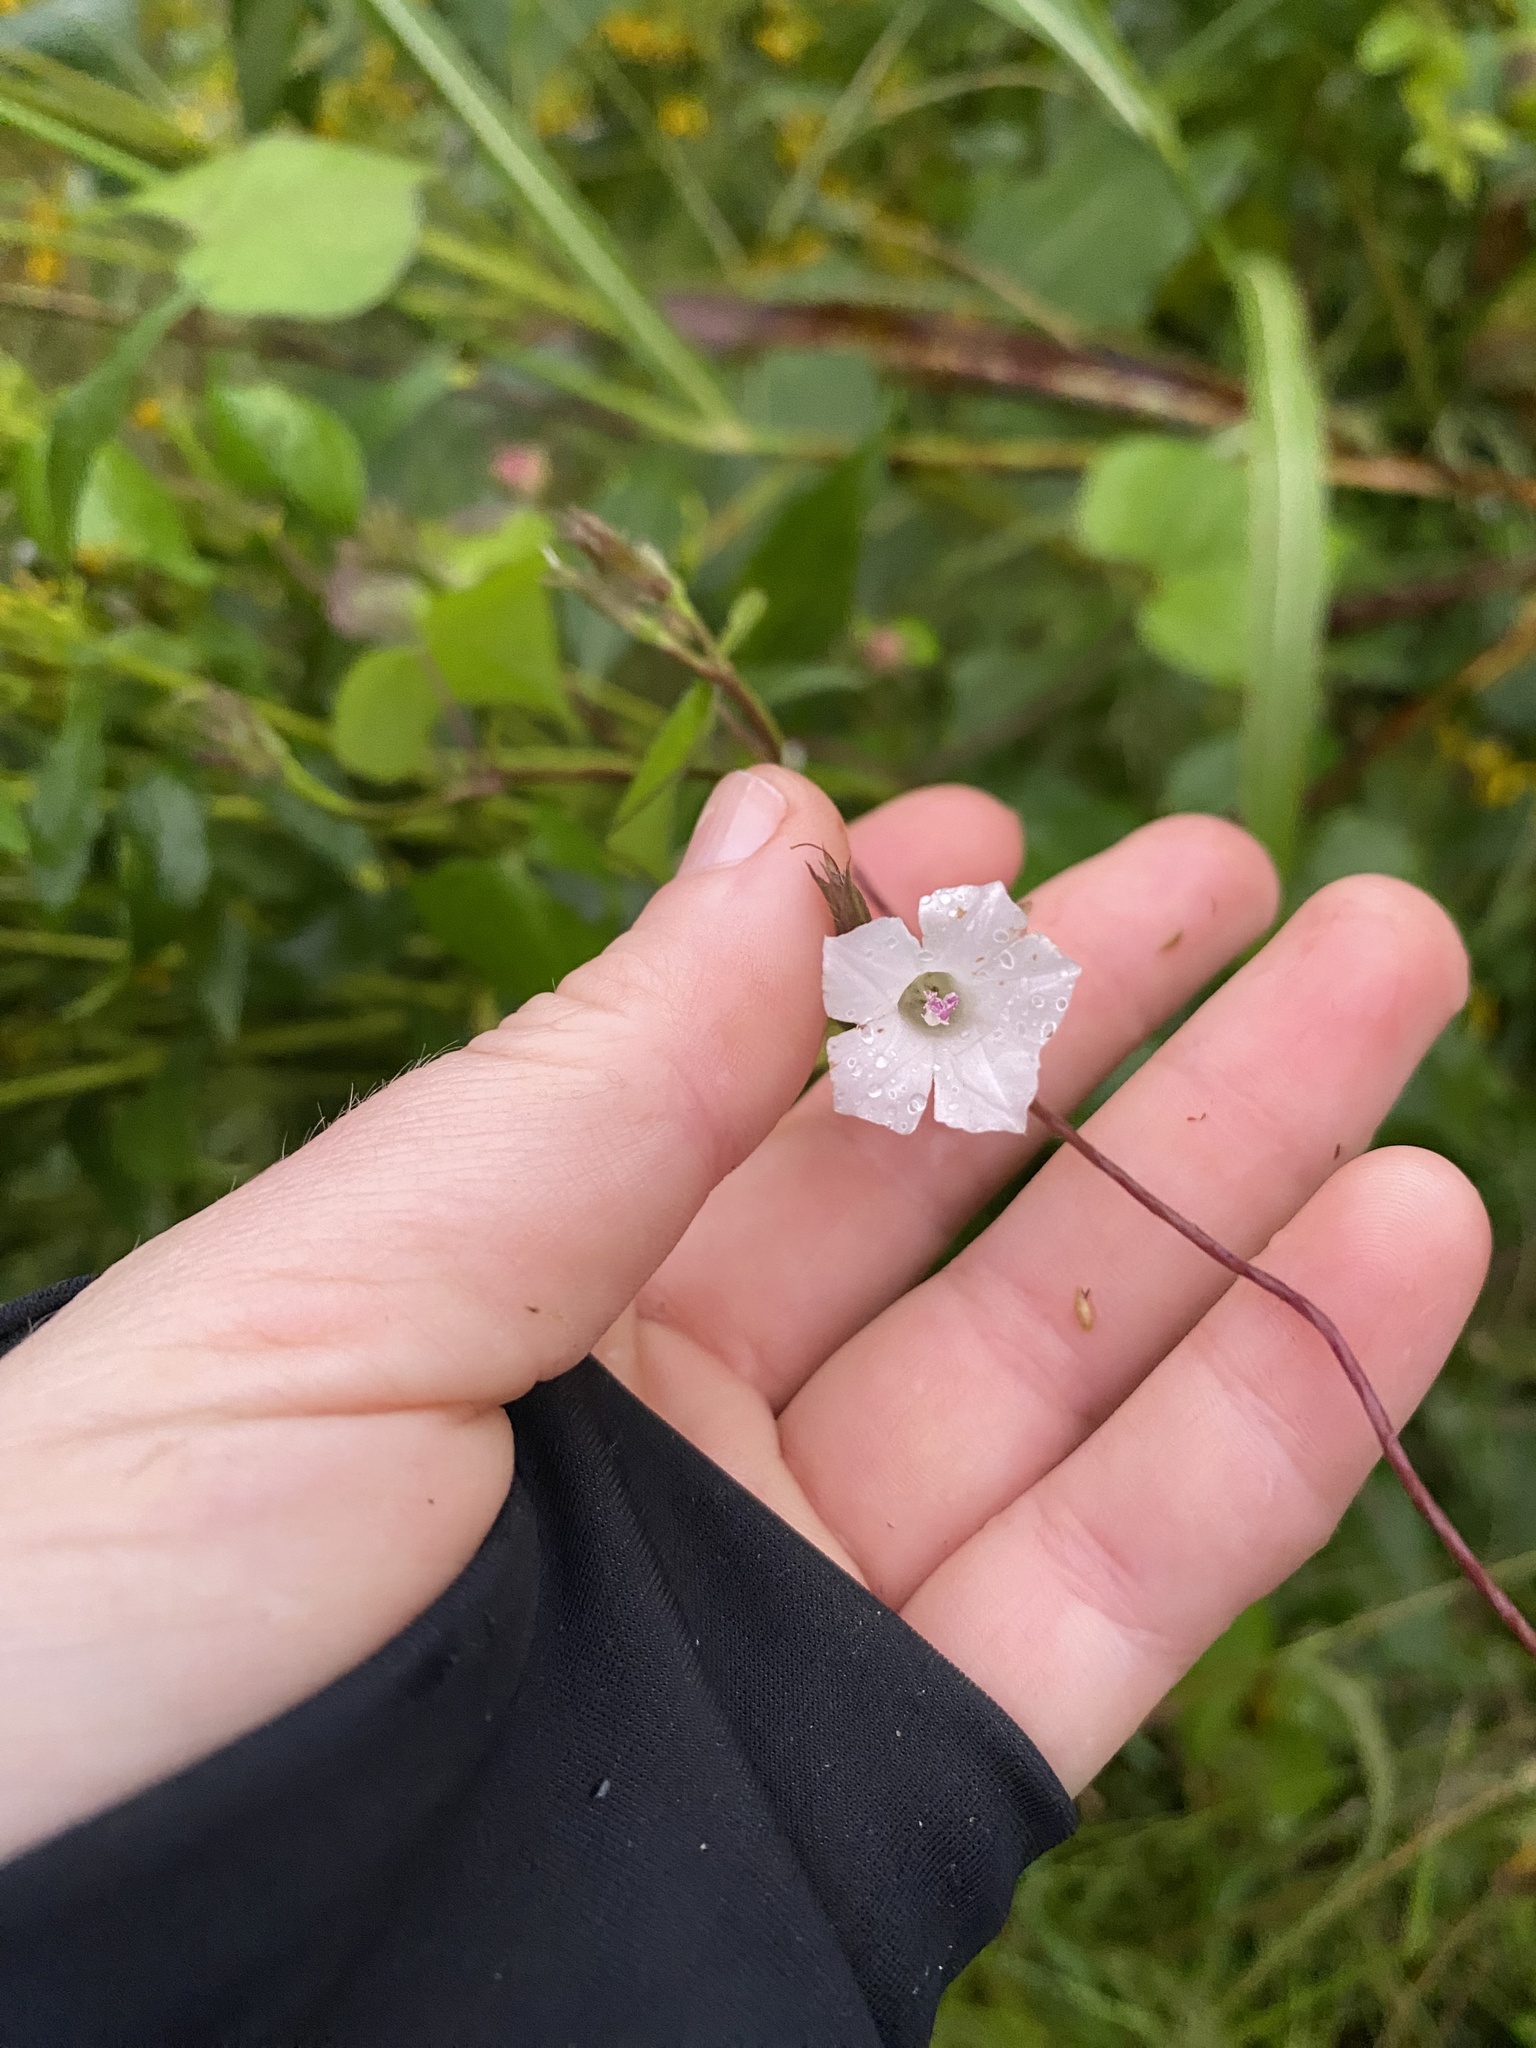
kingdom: Plantae
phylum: Tracheophyta
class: Magnoliopsida
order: Solanales
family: Convolvulaceae
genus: Ipomoea
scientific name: Ipomoea lacunosa
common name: White morning-glory
